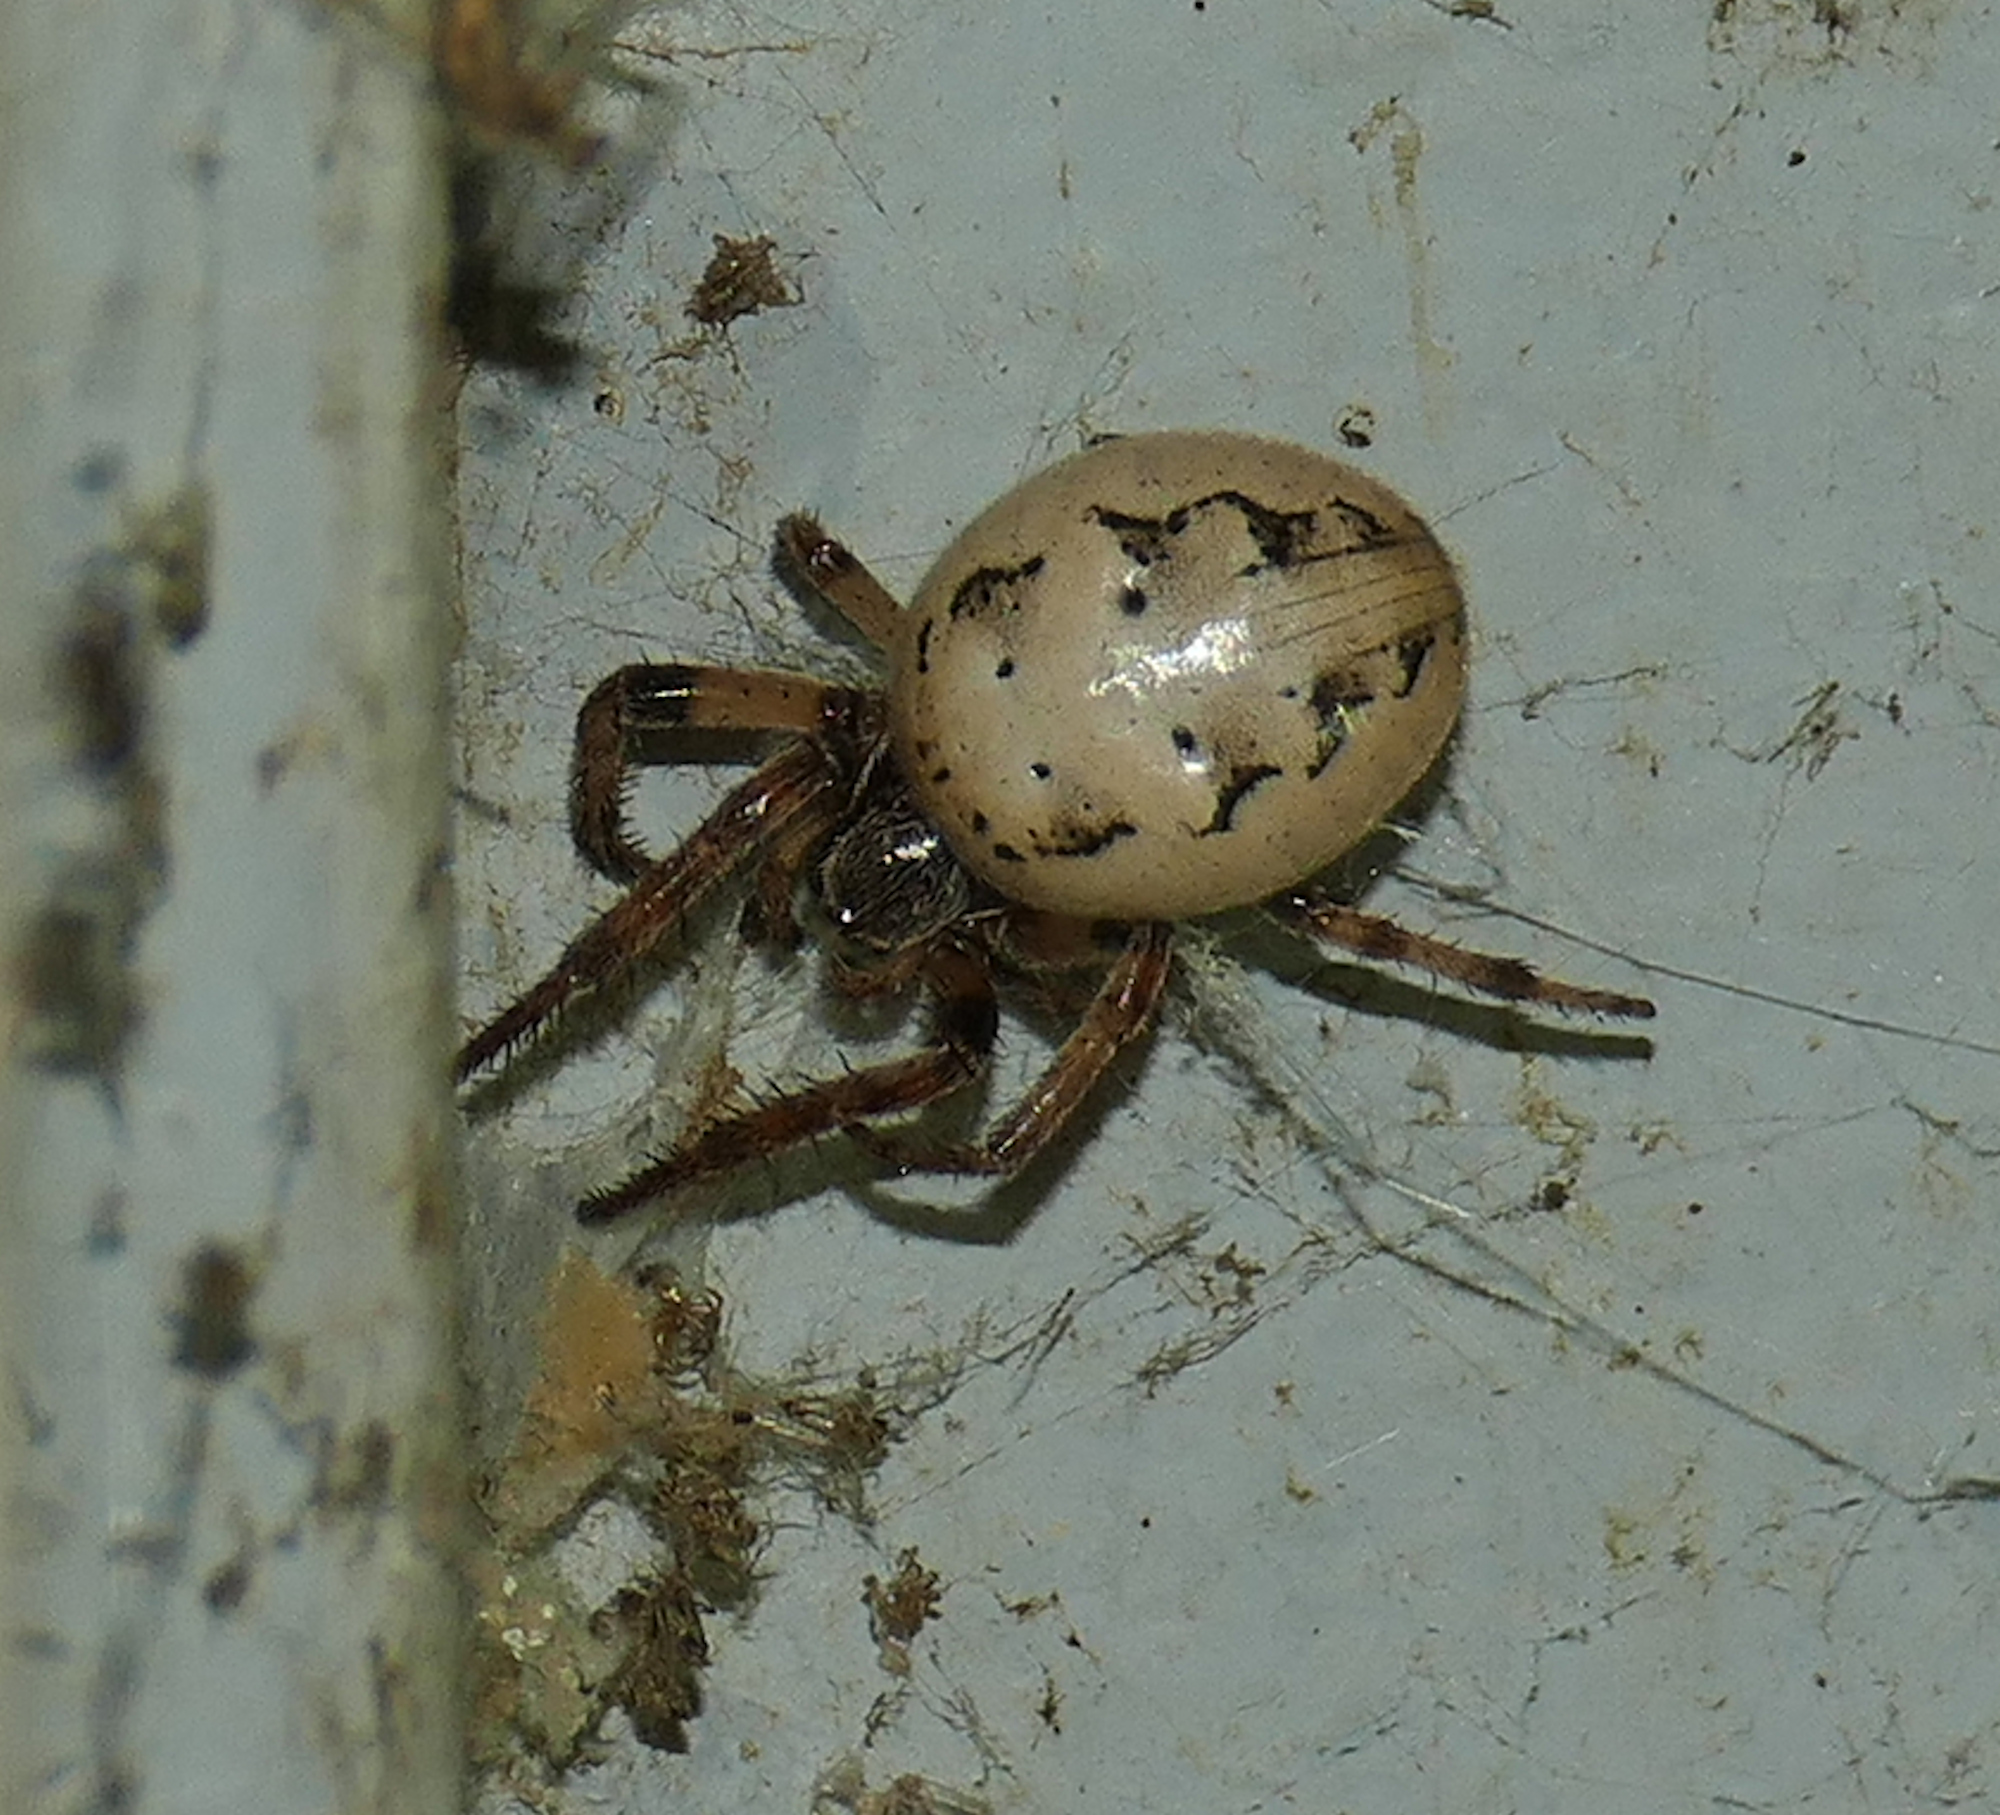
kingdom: Animalia
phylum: Arthropoda
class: Arachnida
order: Araneae
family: Araneidae
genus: Larinioides
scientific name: Larinioides cornutus
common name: Furrow orbweaver
